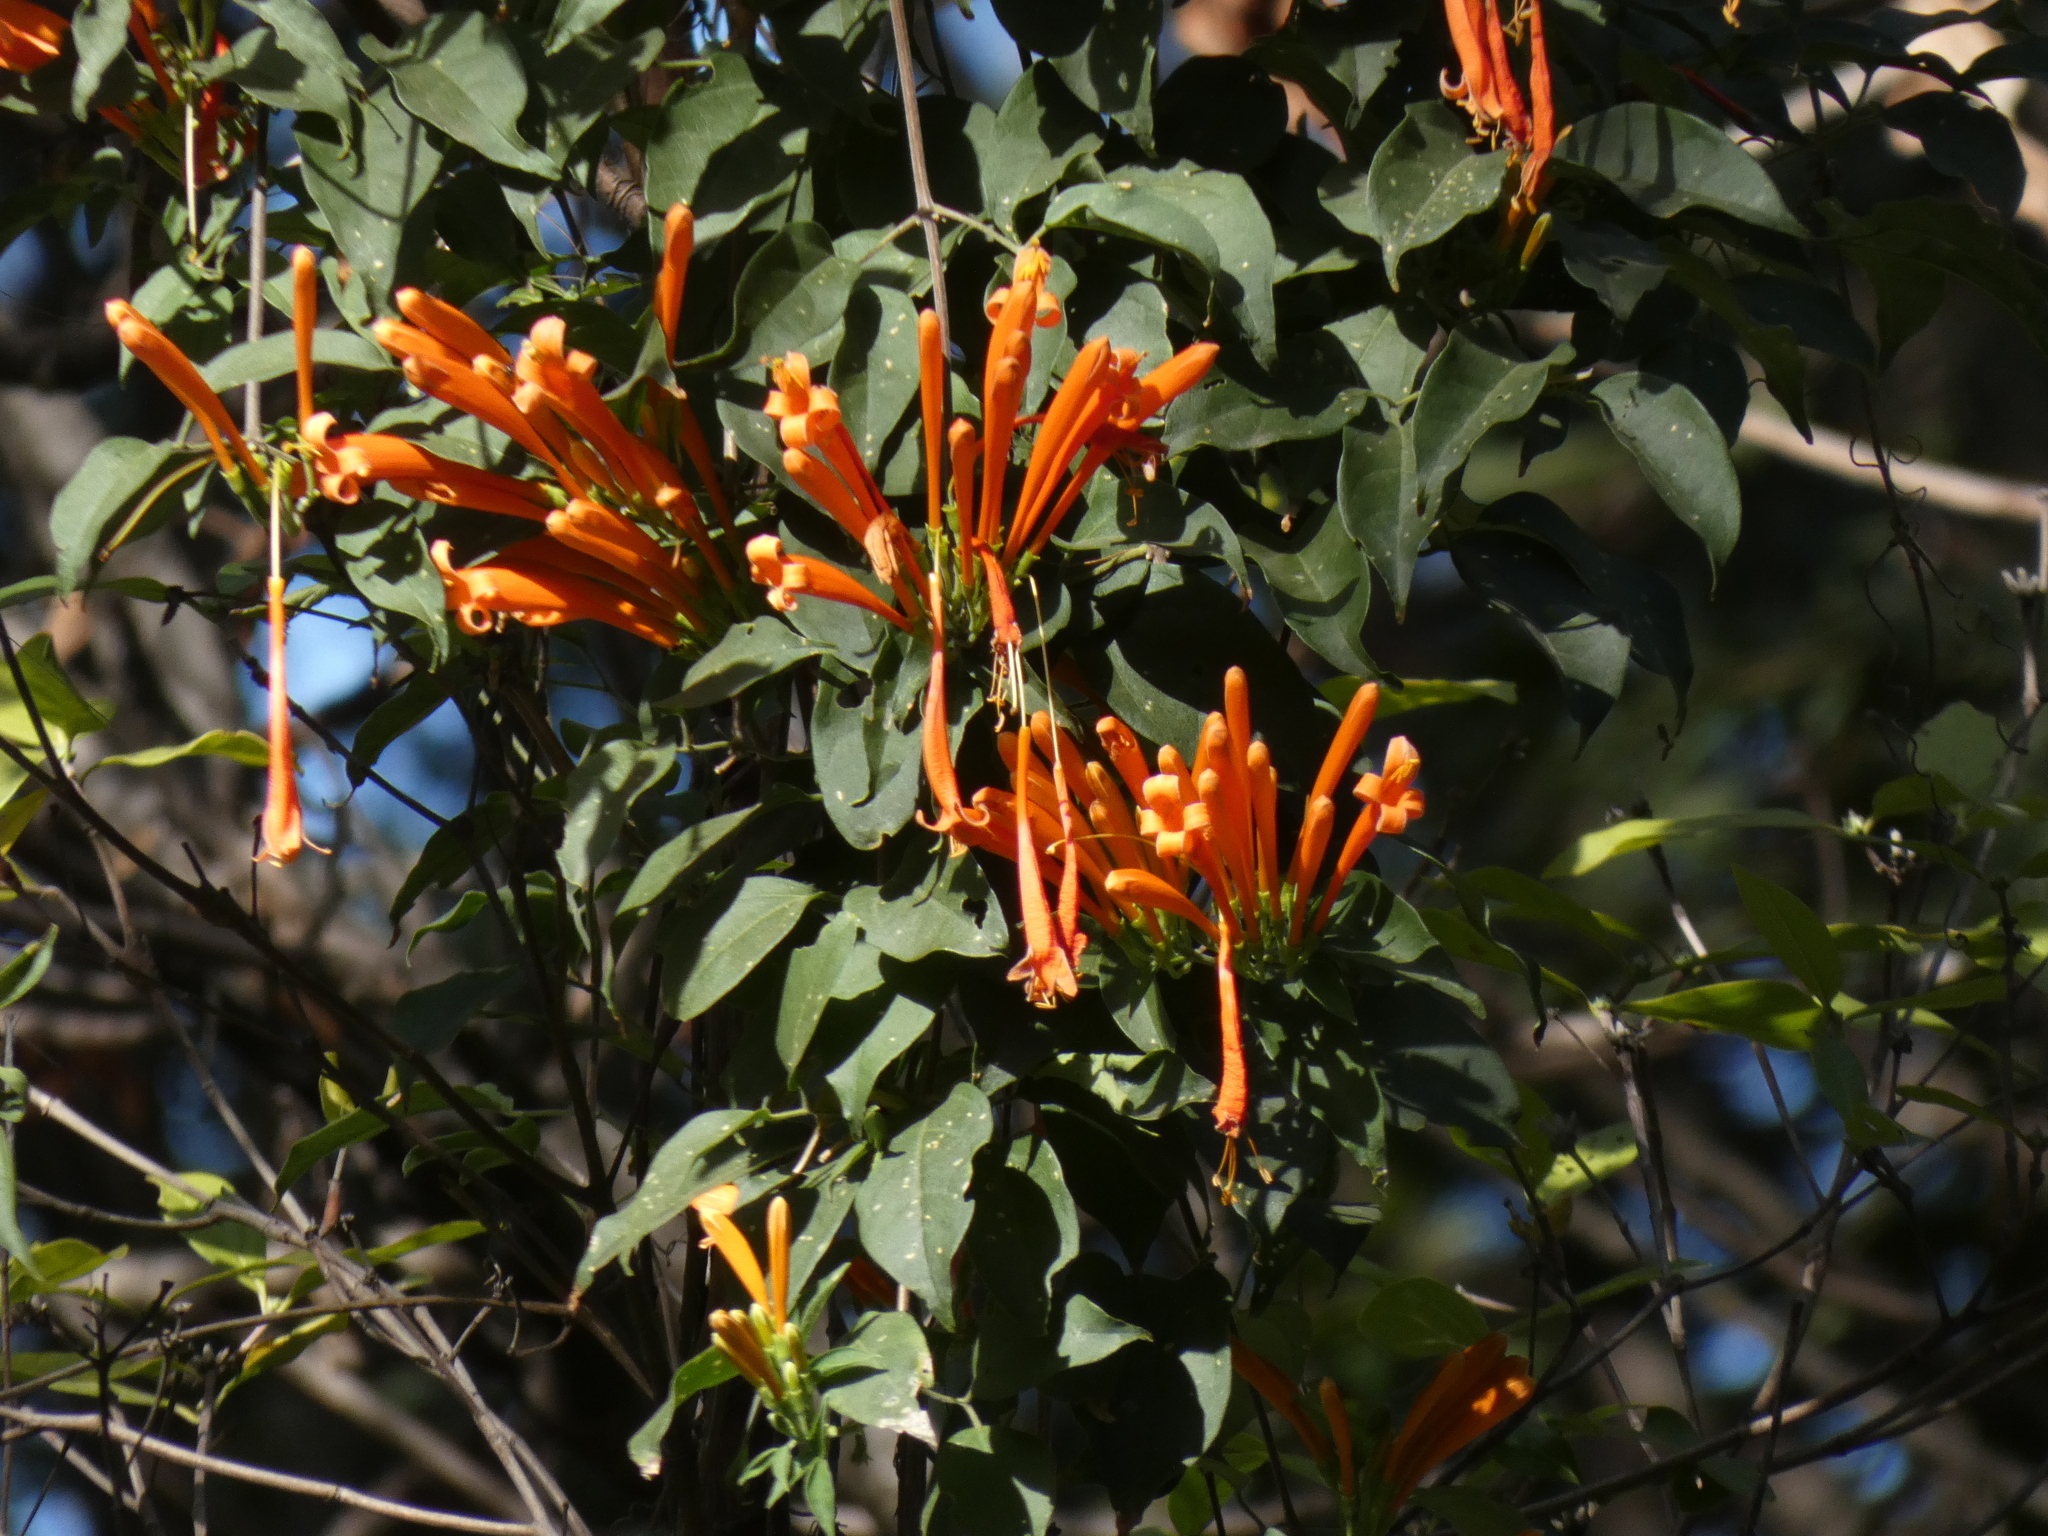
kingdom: Plantae
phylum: Tracheophyta
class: Magnoliopsida
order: Lamiales
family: Bignoniaceae
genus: Pyrostegia
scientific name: Pyrostegia venusta
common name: Flamevine
